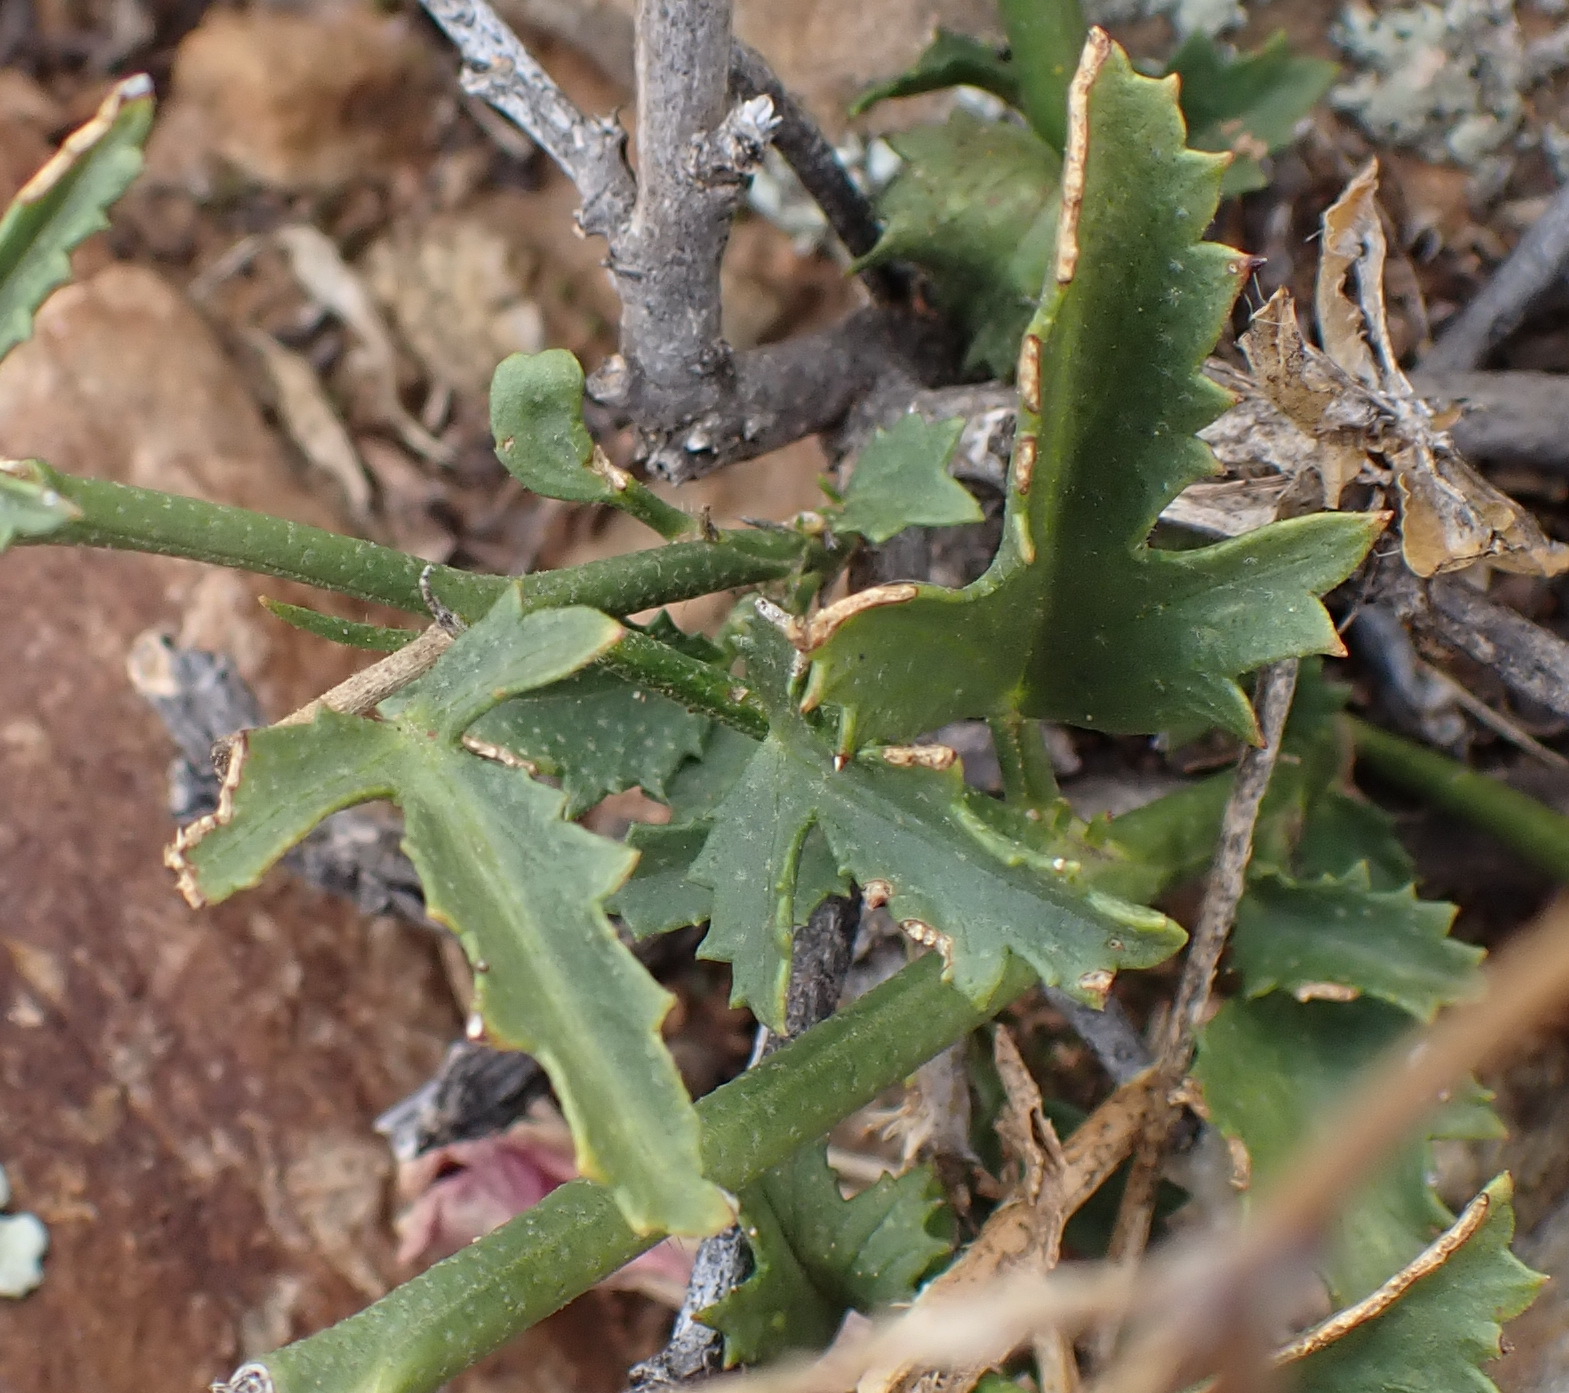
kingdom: Plantae
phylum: Tracheophyta
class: Magnoliopsida
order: Malvales
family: Malvaceae
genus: Hibiscus
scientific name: Hibiscus pusillus
